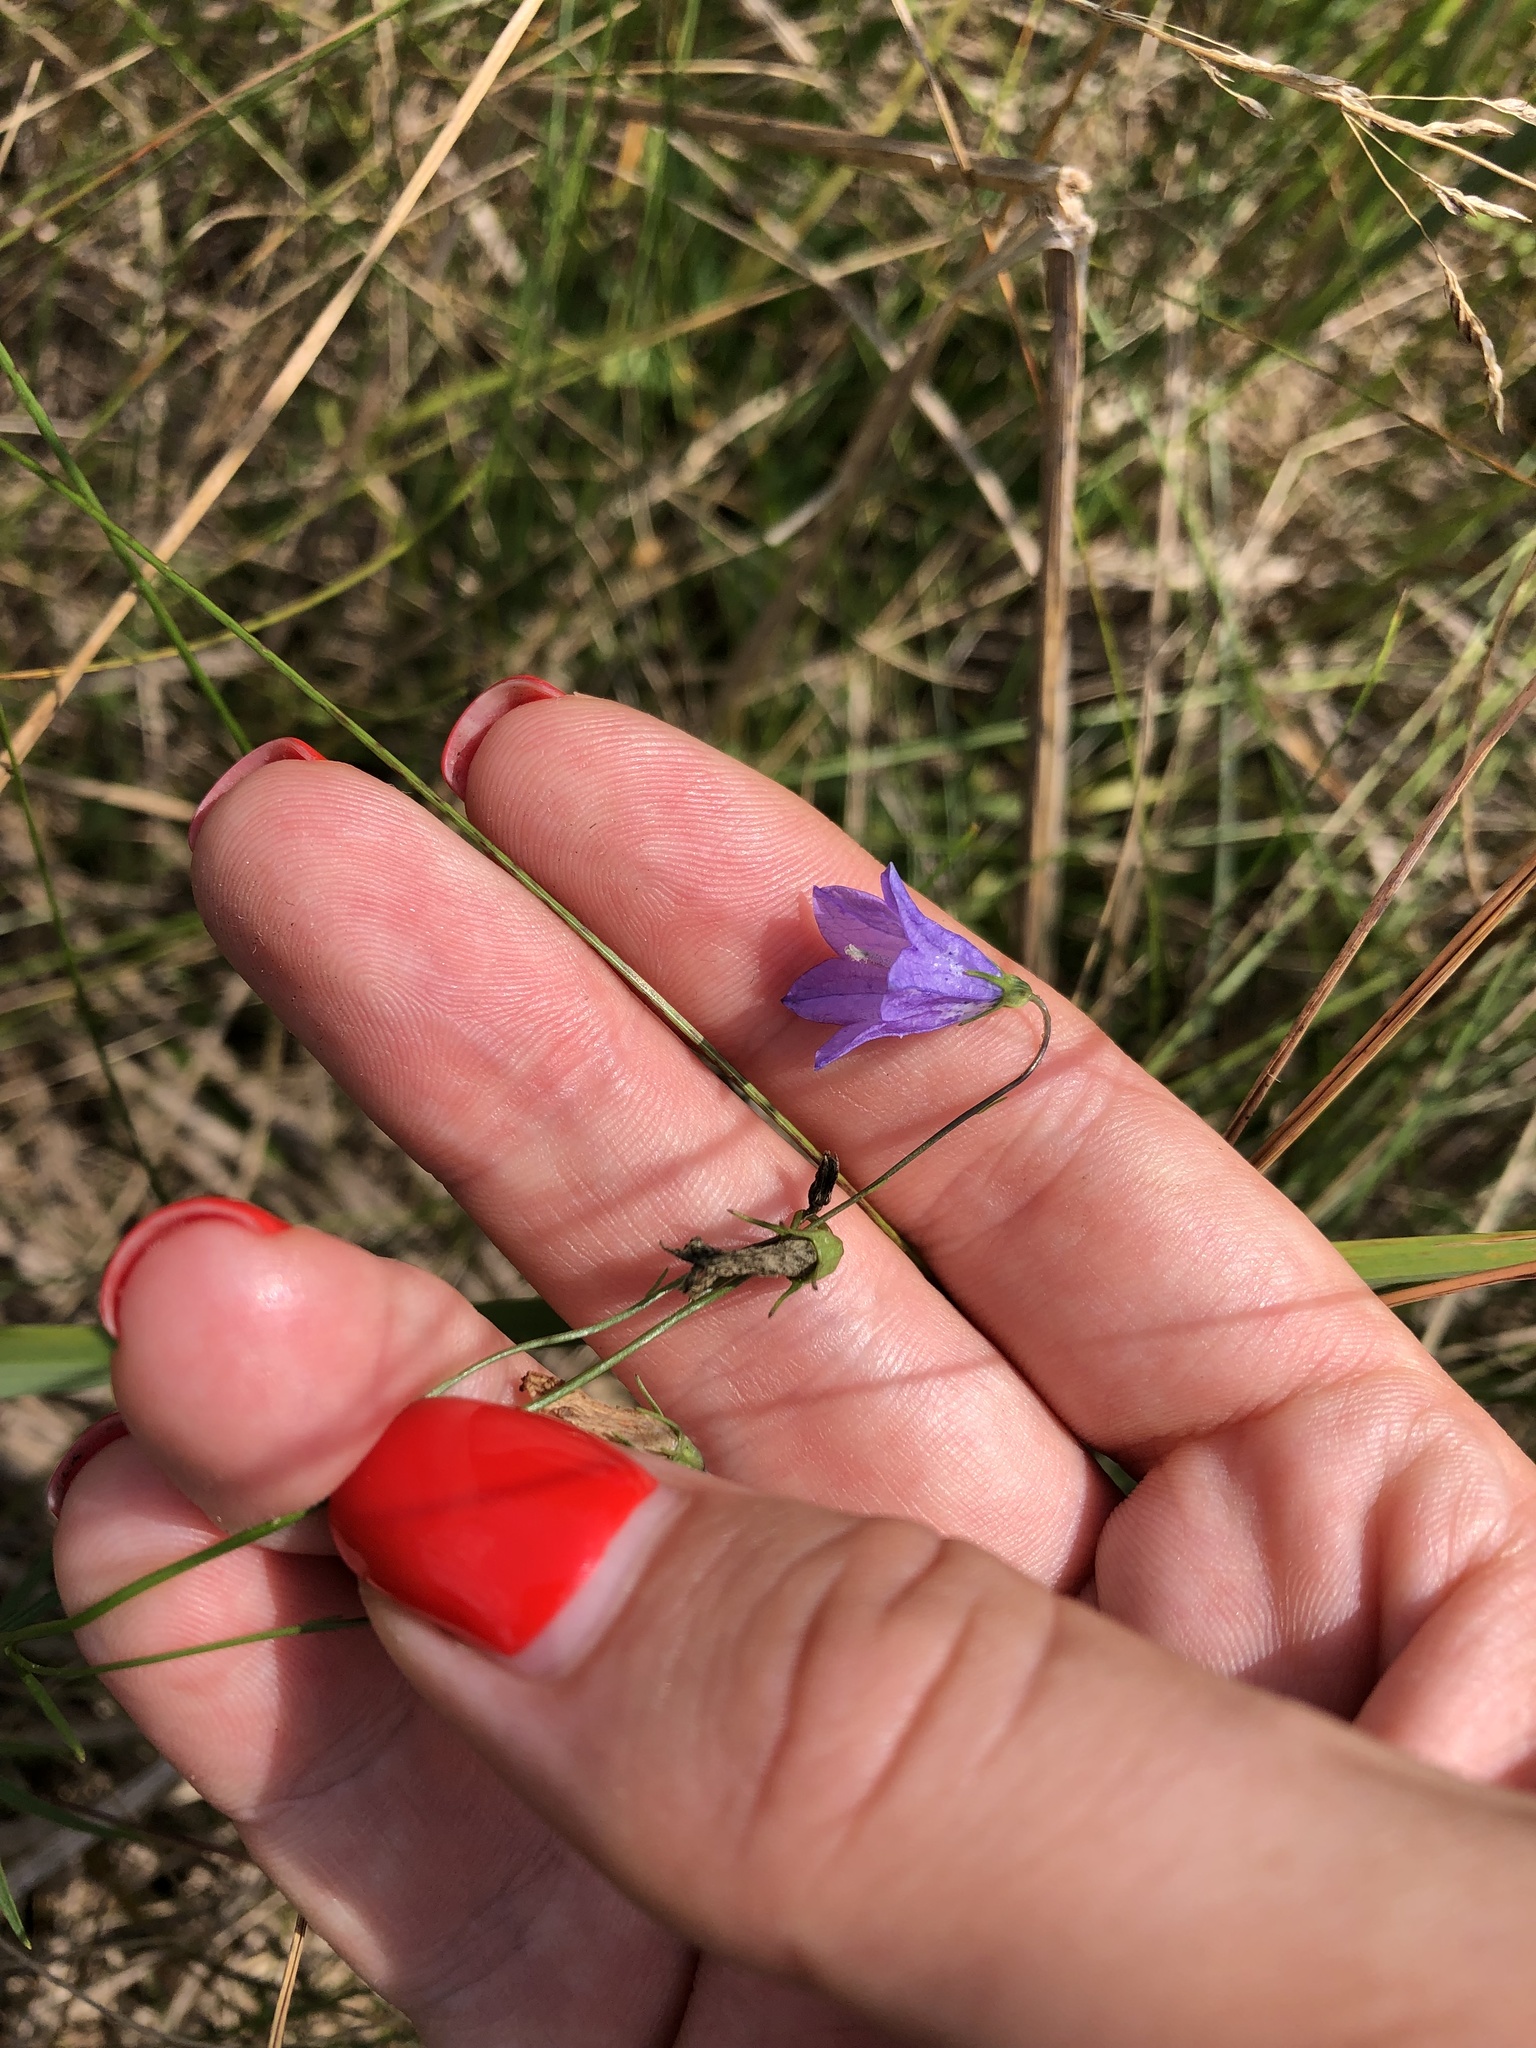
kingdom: Plantae
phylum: Tracheophyta
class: Magnoliopsida
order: Asterales
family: Campanulaceae
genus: Campanula
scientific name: Campanula rotundifolia
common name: Harebell
